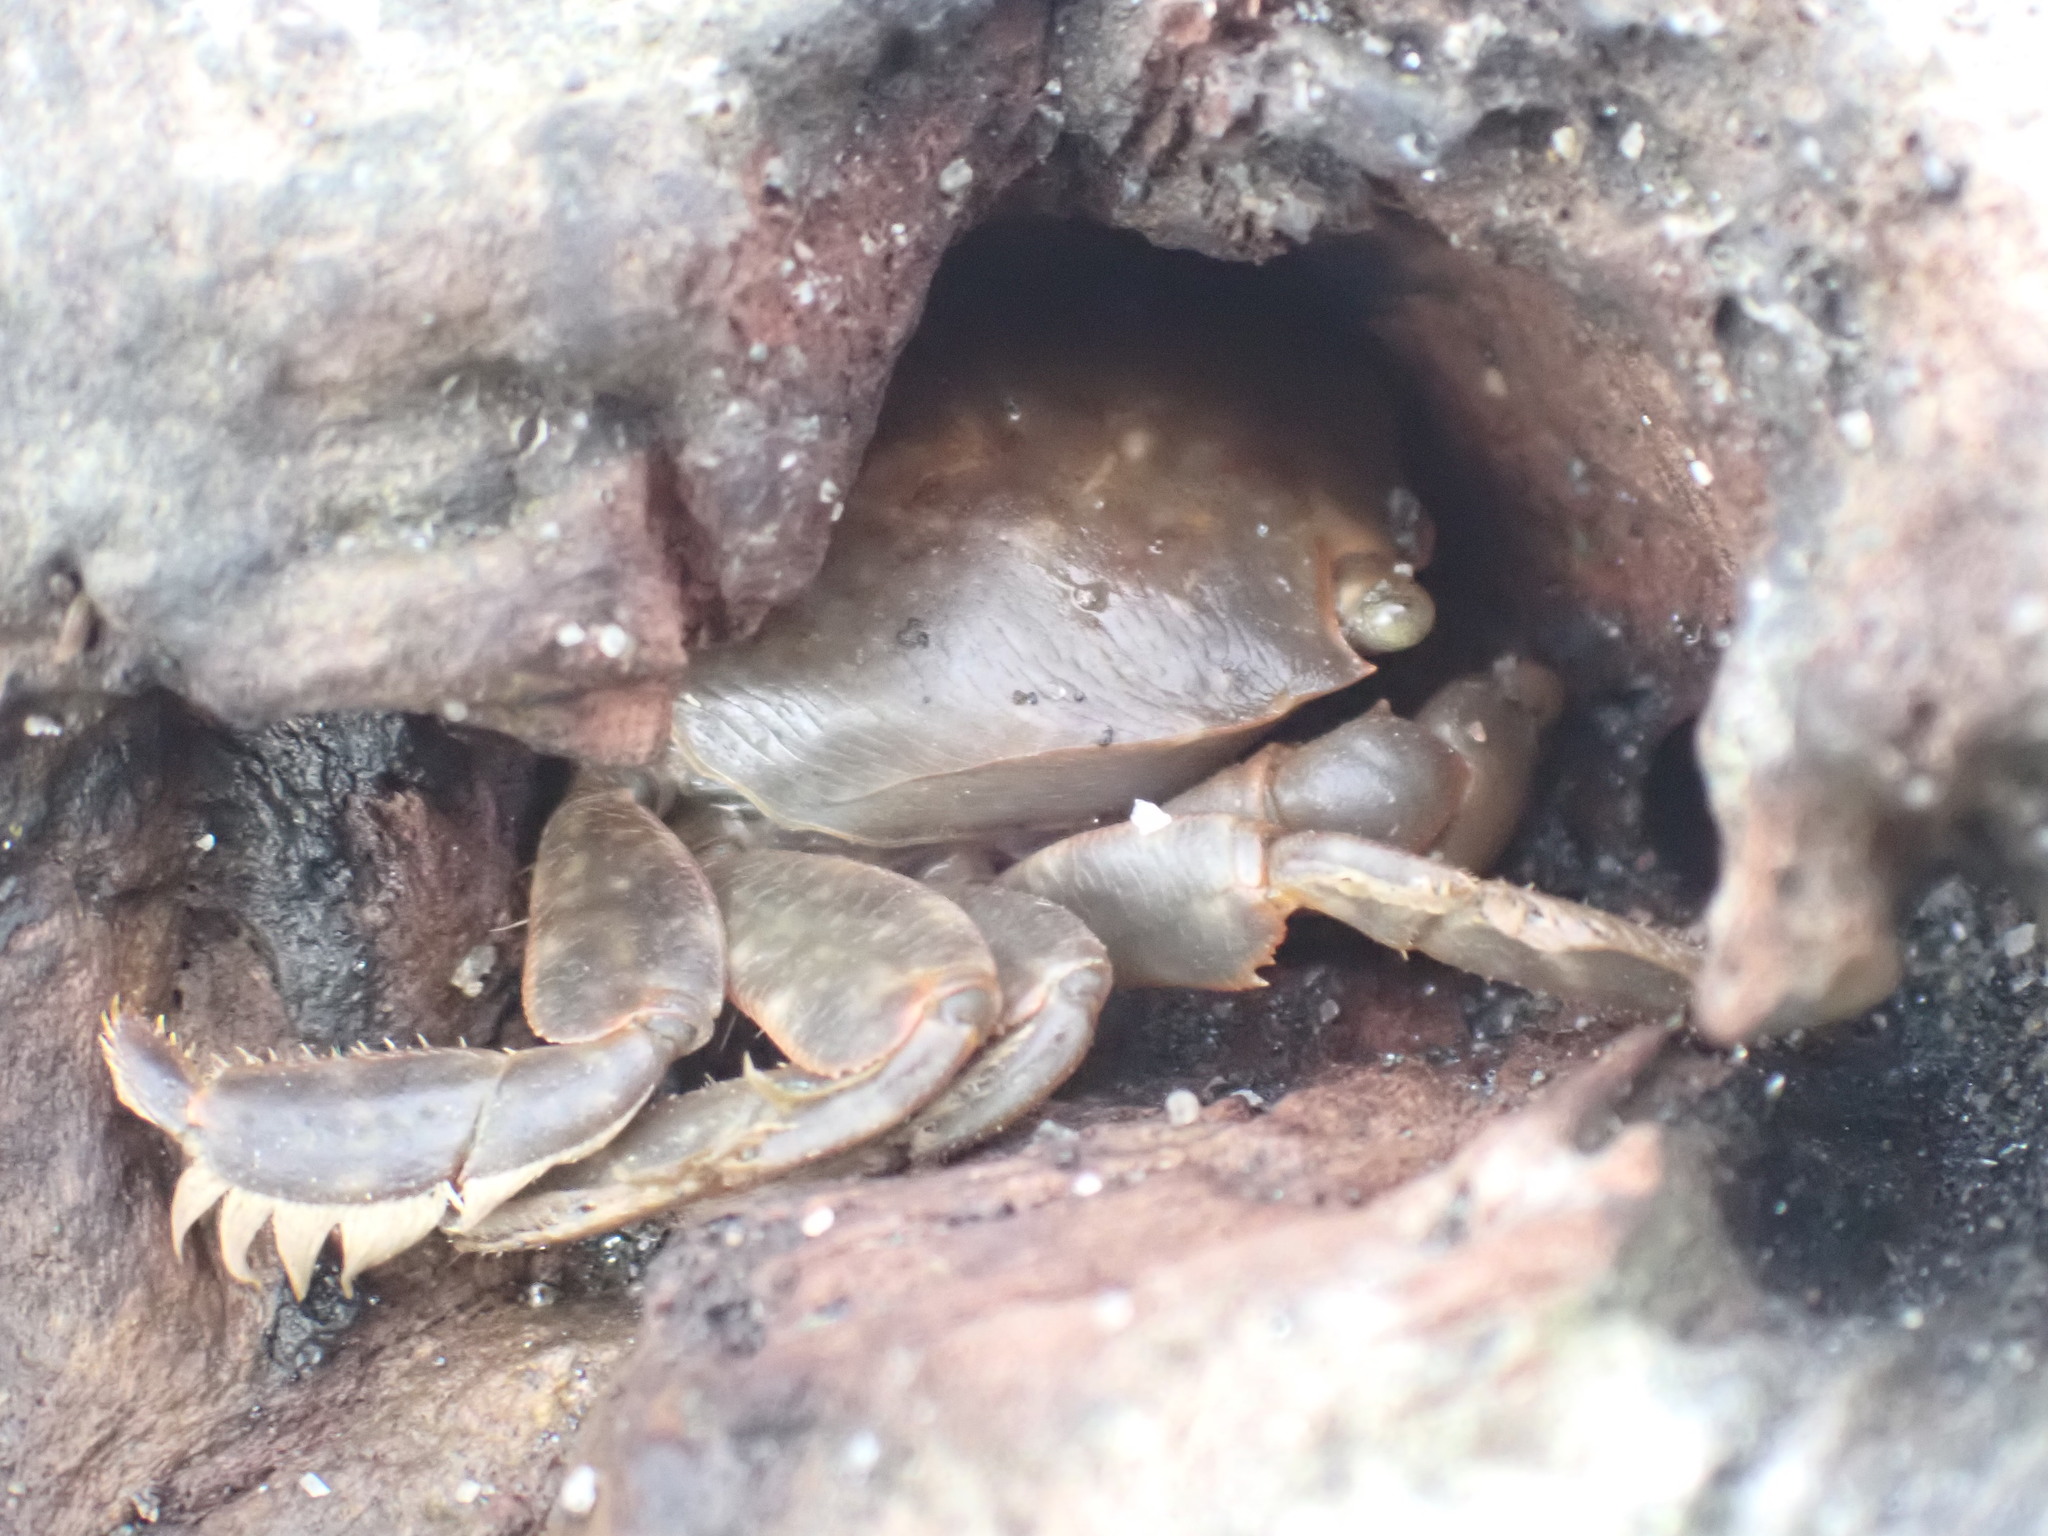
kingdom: Animalia
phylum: Arthropoda
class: Malacostraca
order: Decapoda
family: Grapsidae
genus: Planes
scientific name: Planes minutus
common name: Gulf weed crab
